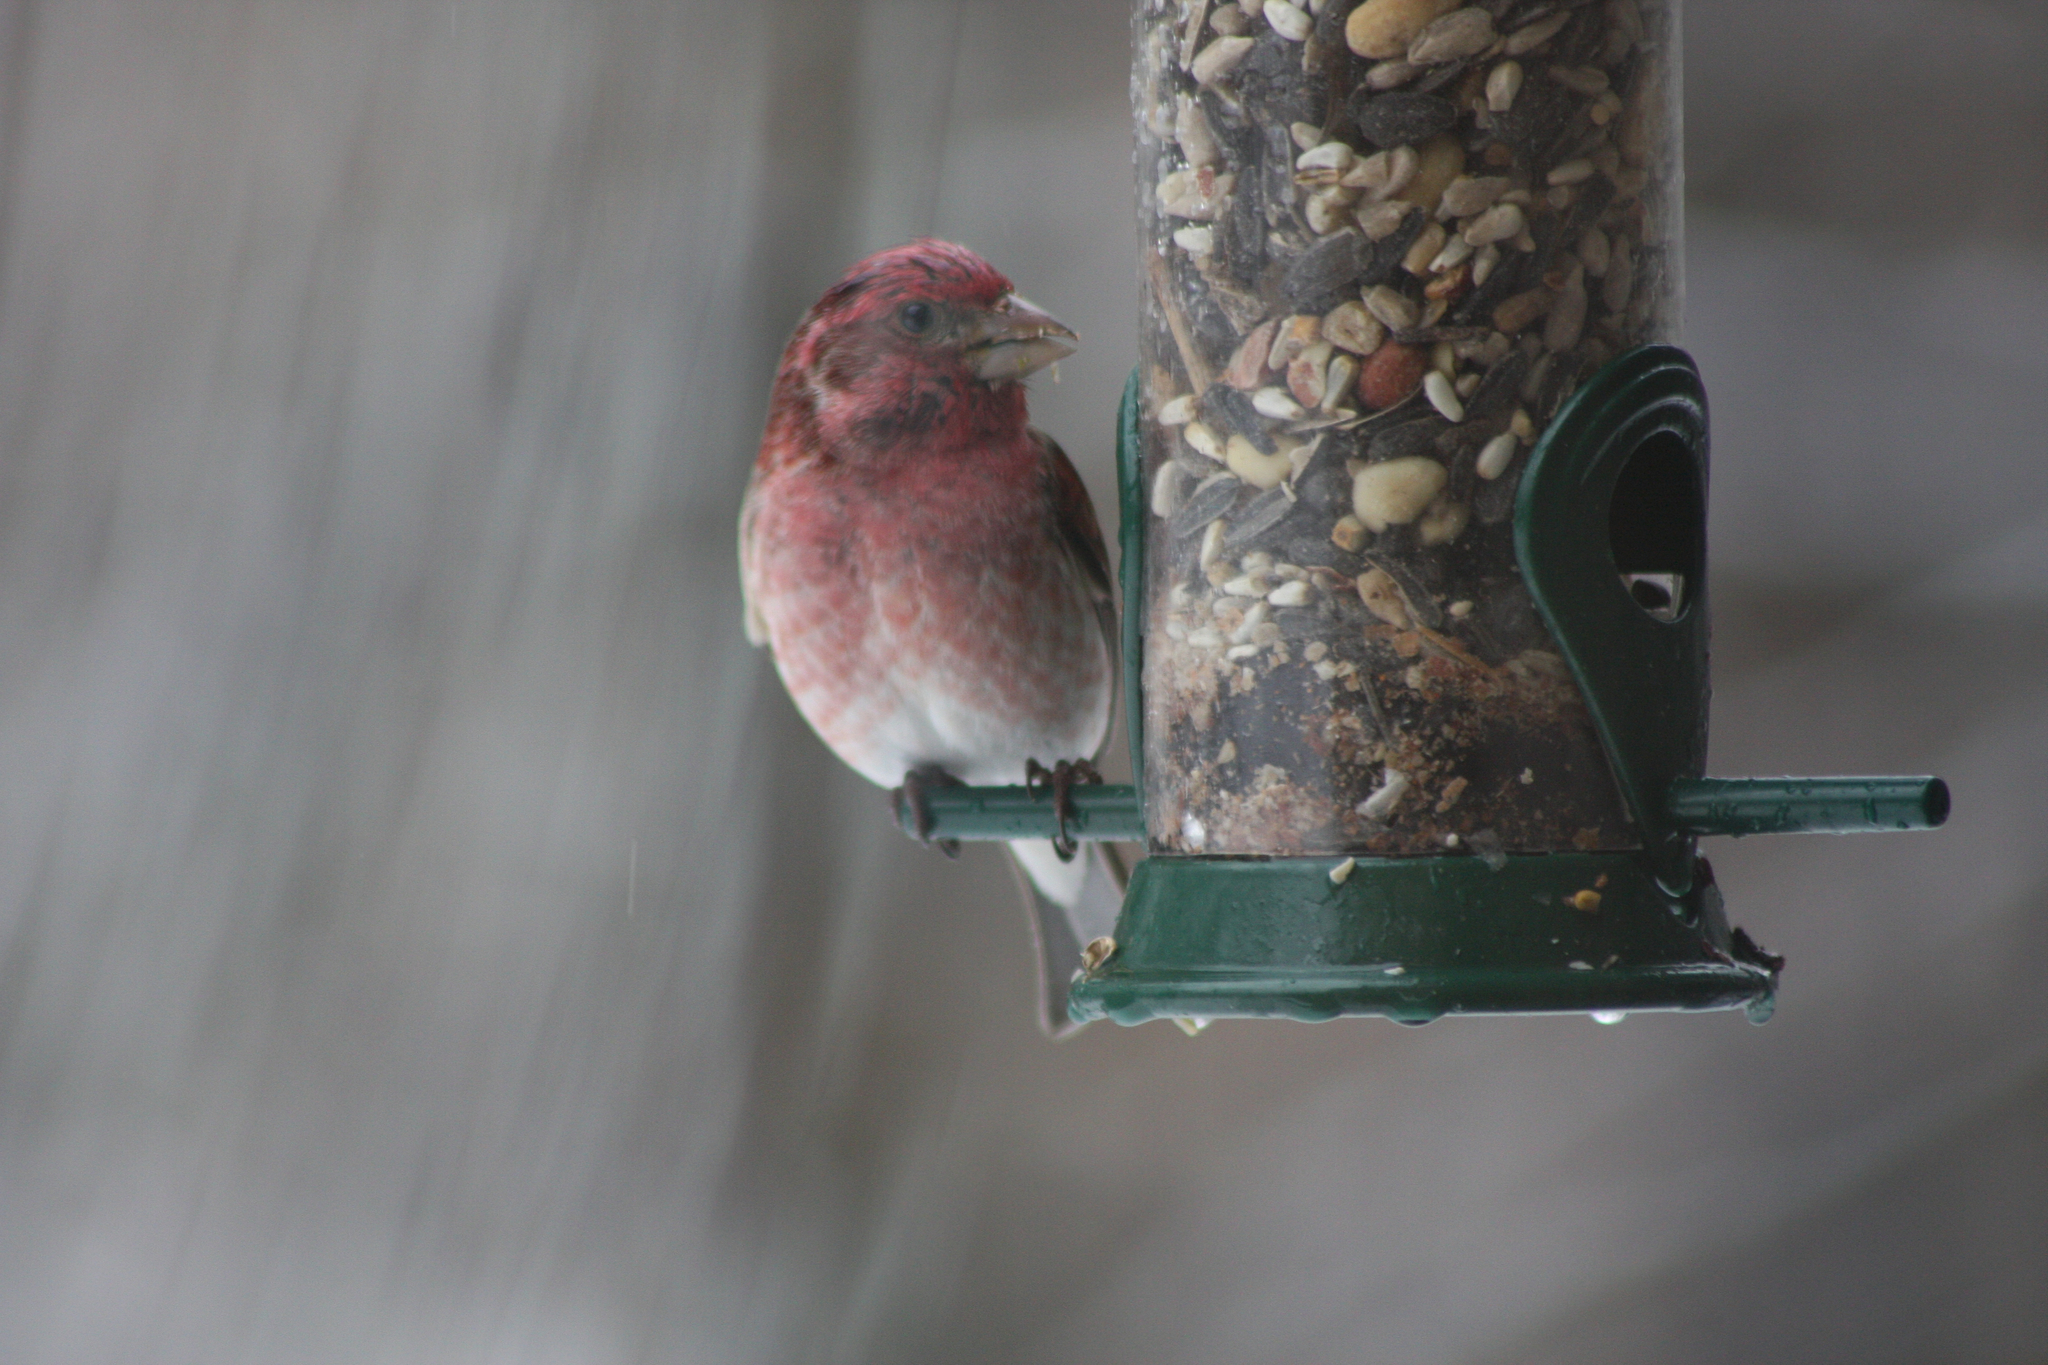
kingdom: Animalia
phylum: Chordata
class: Aves
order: Passeriformes
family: Fringillidae
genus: Haemorhous
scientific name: Haemorhous purpureus
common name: Purple finch
